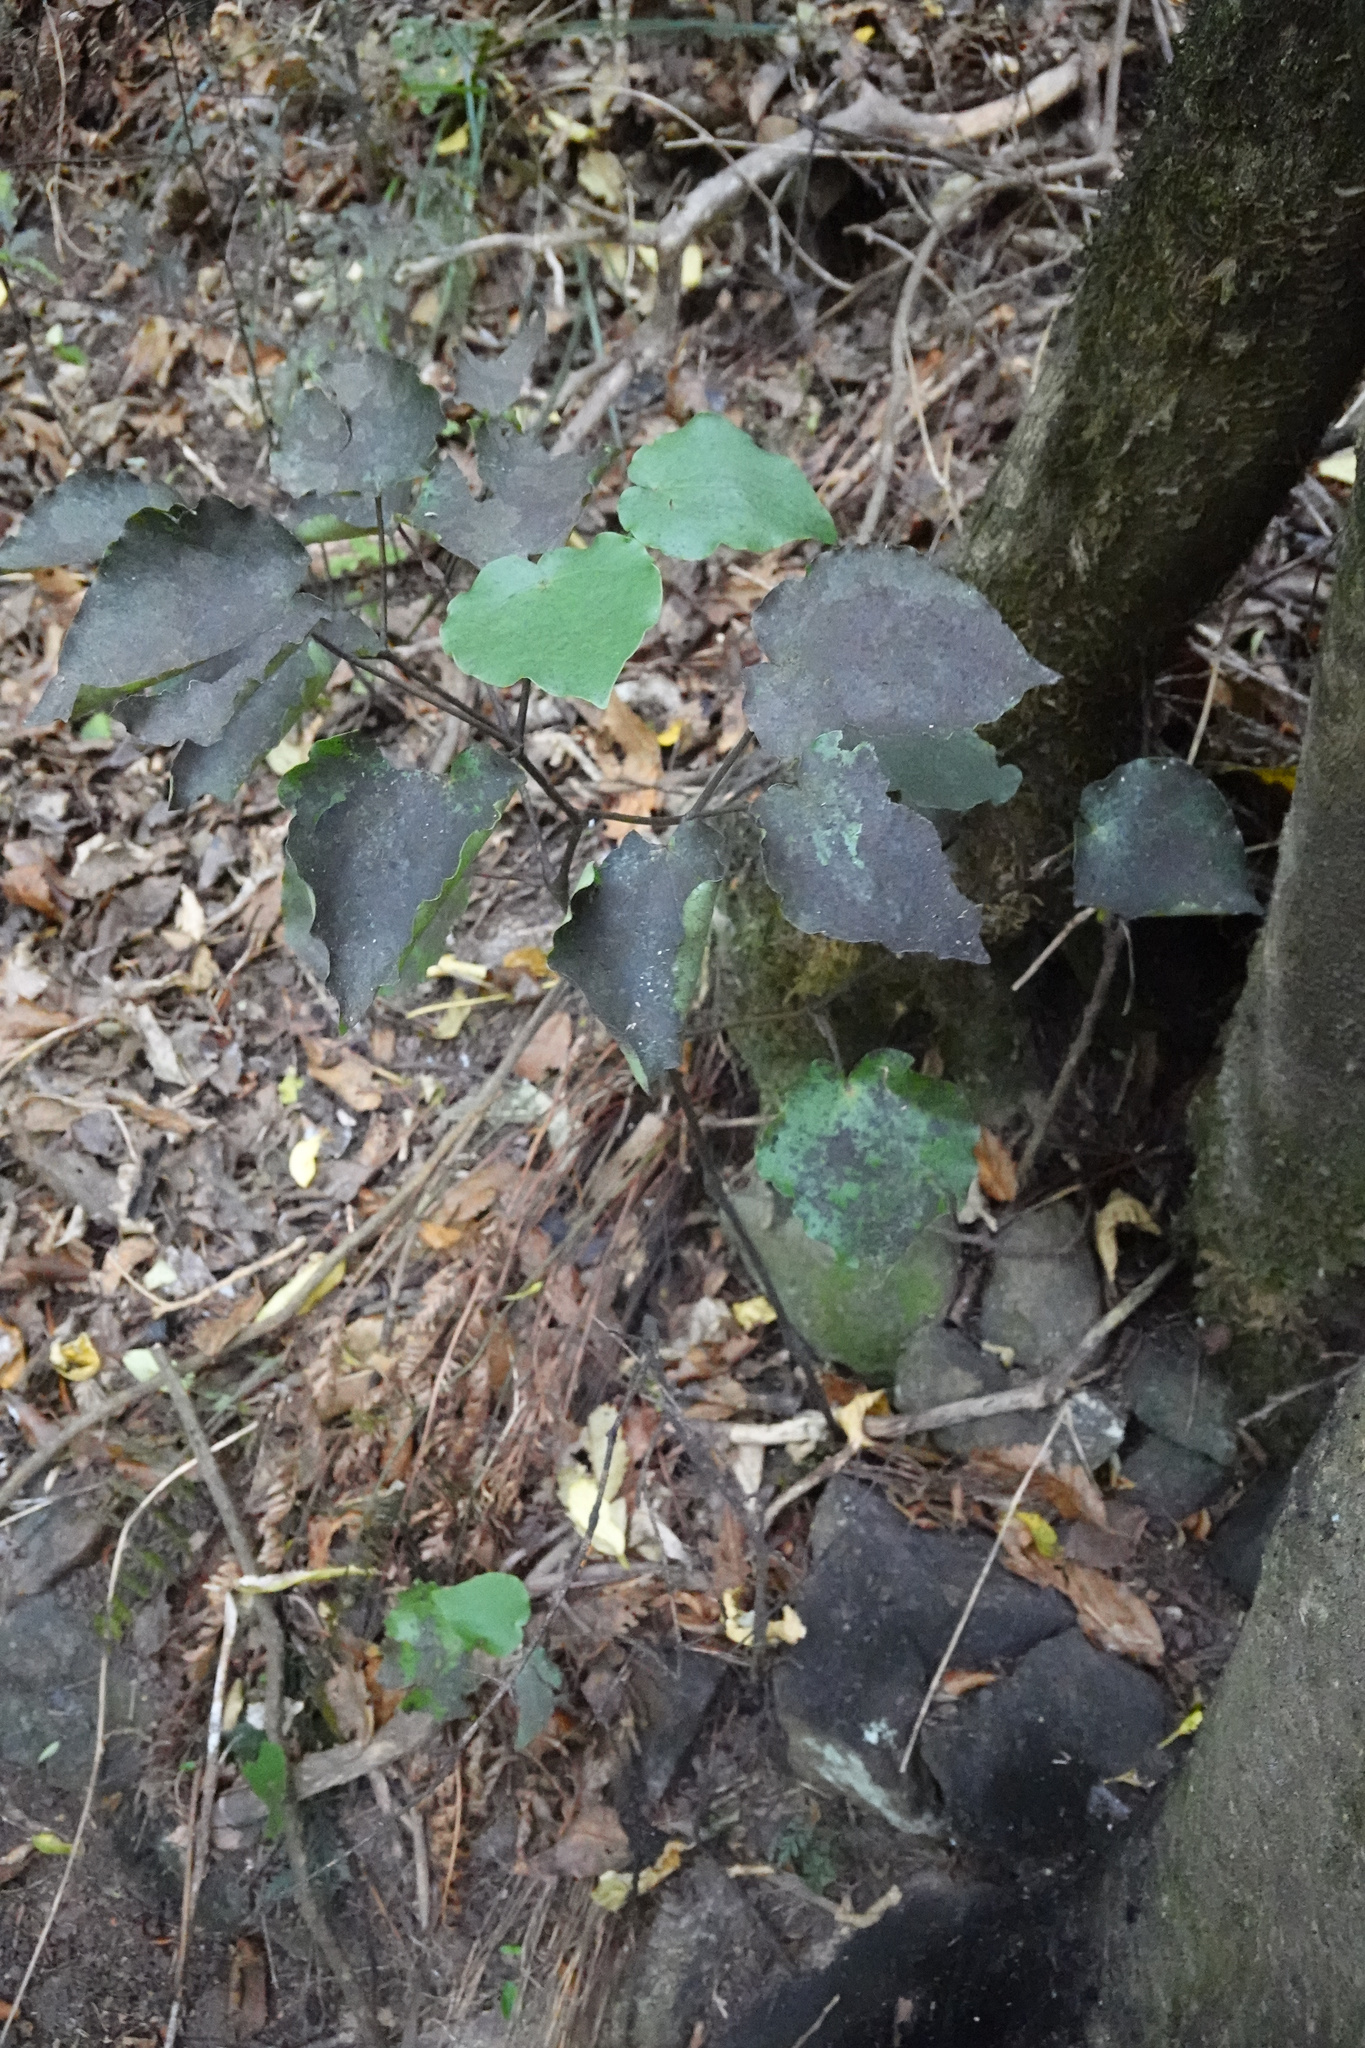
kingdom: Plantae
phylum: Tracheophyta
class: Magnoliopsida
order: Piperales
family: Piperaceae
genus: Macropiper
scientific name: Macropiper excelsum
